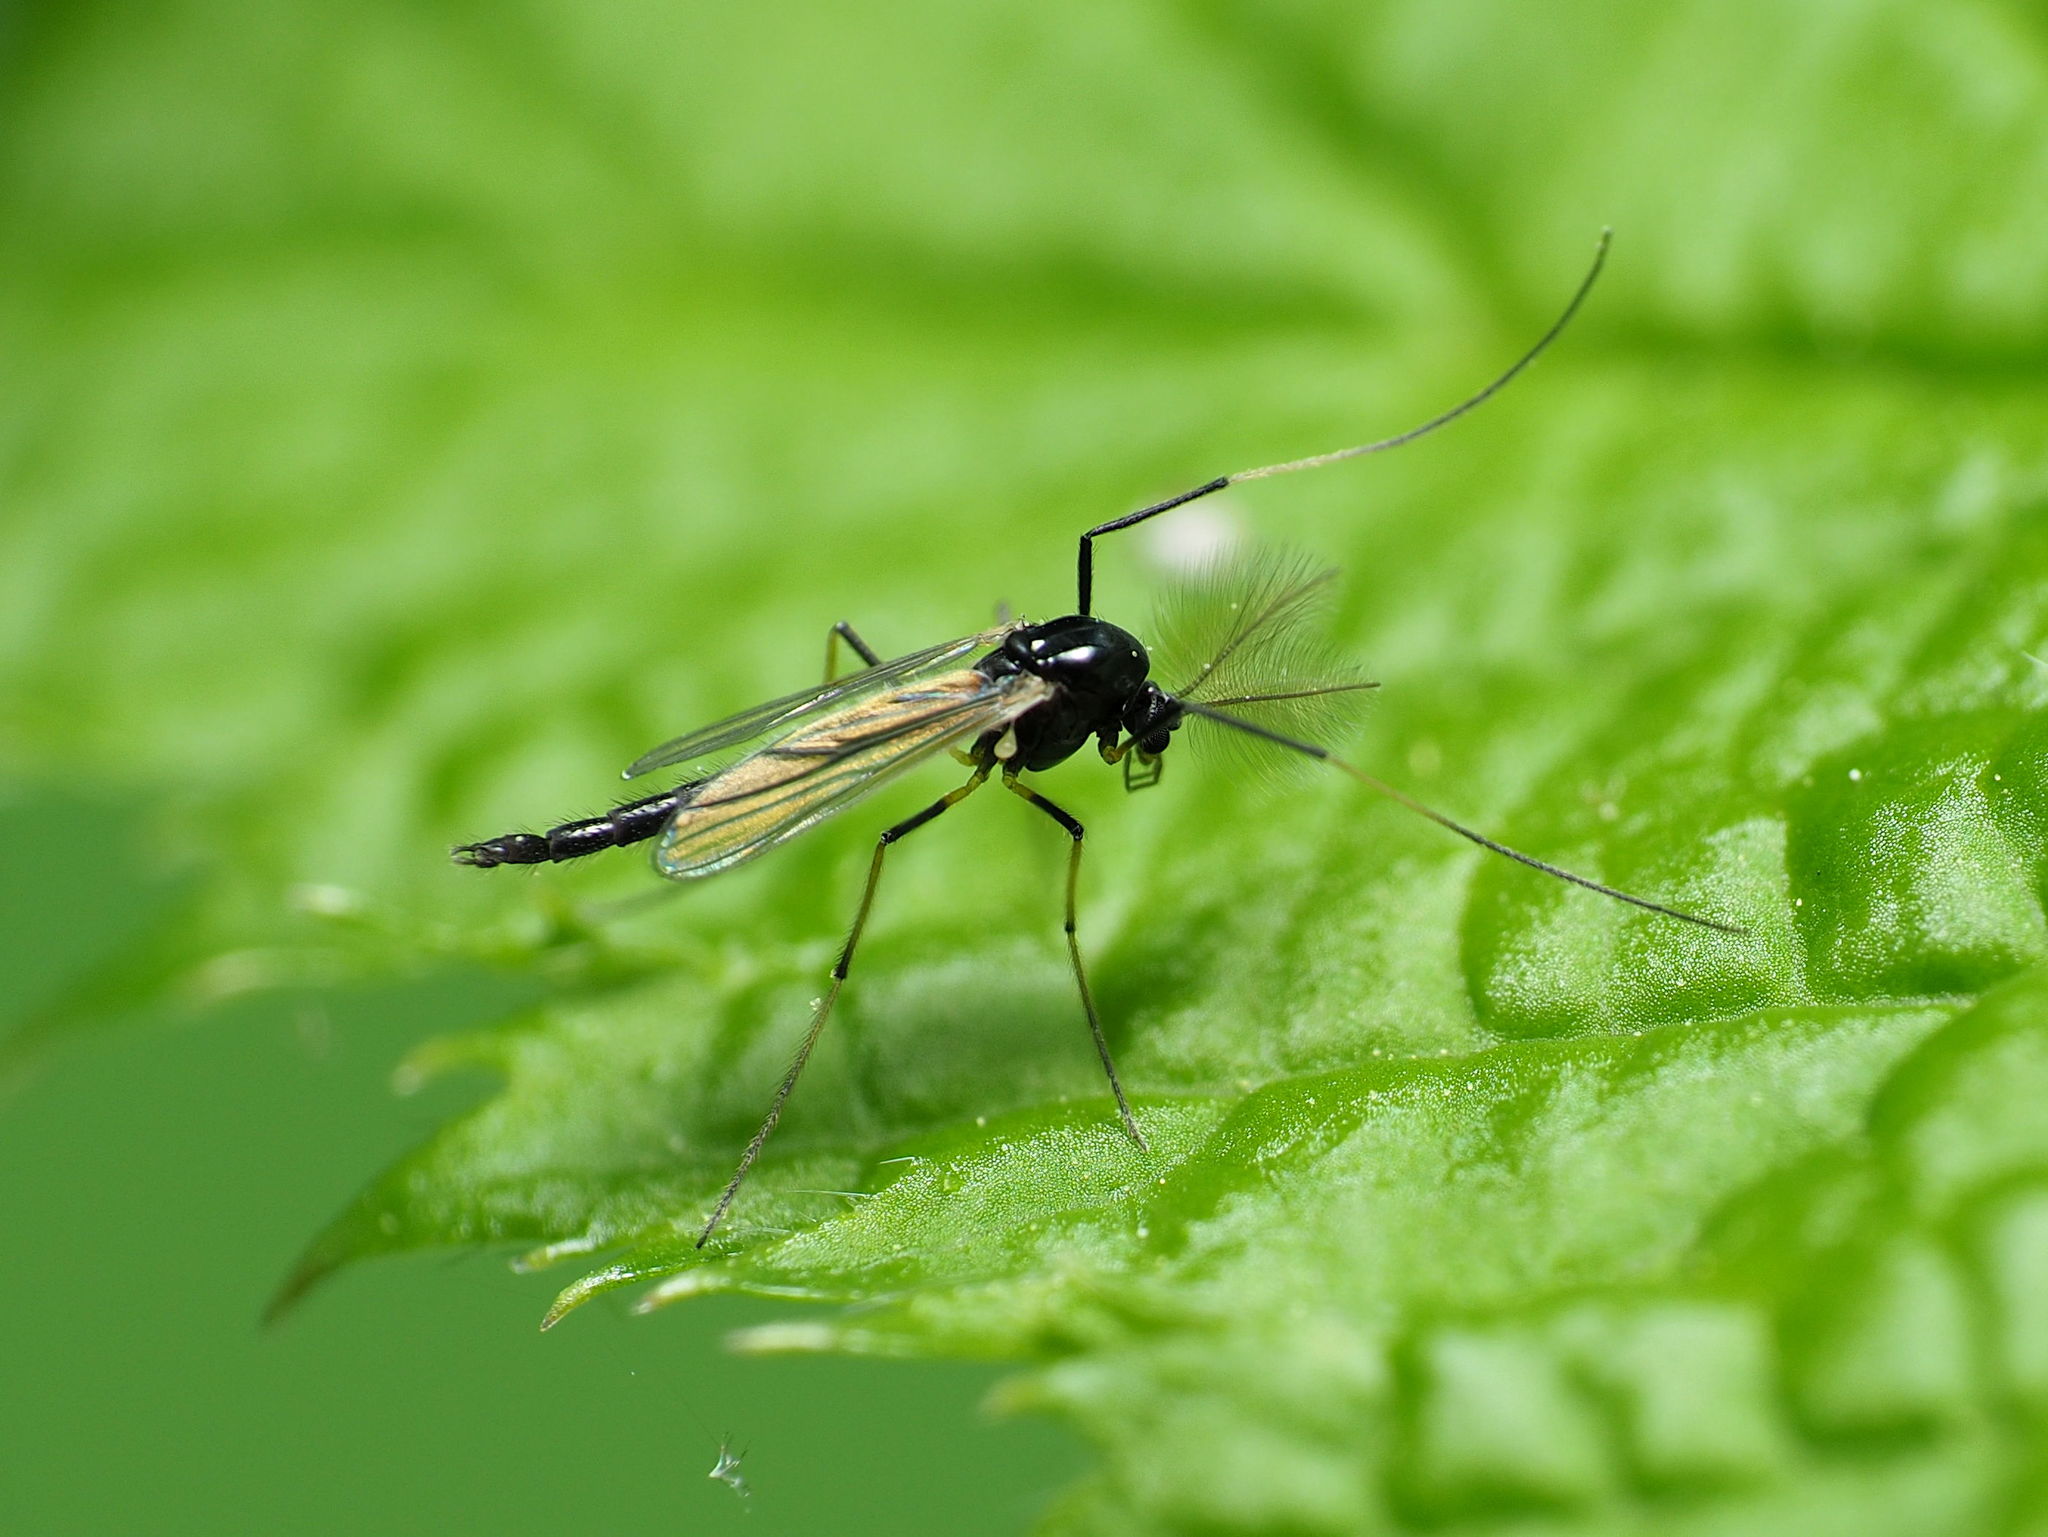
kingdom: Animalia
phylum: Arthropoda
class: Insecta
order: Diptera
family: Chironomidae
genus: Paratendipes
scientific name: Paratendipes albimanus
